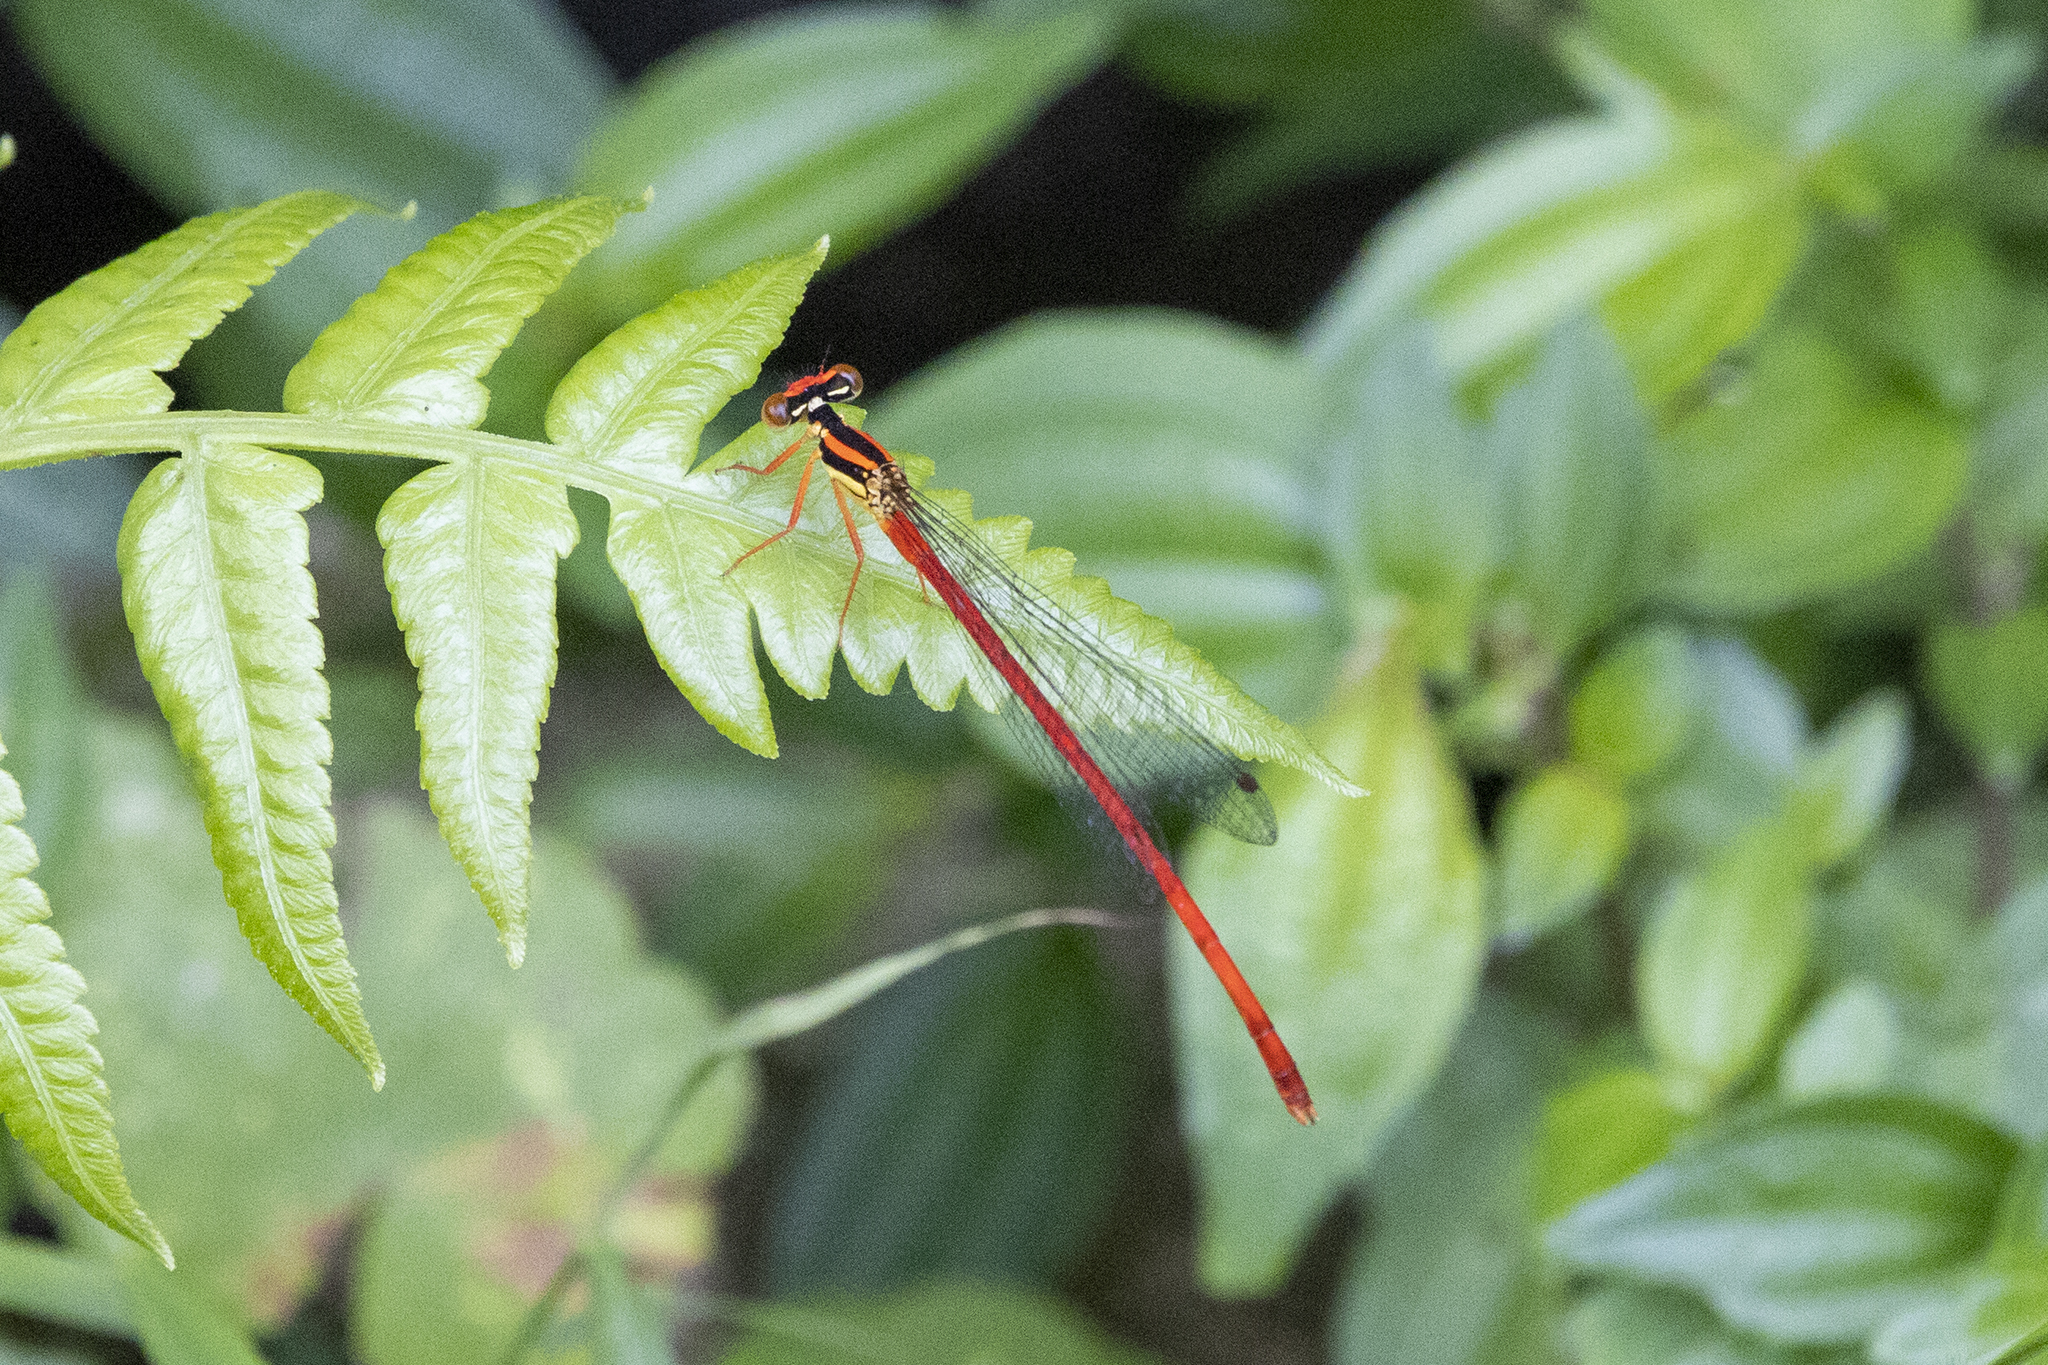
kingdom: Animalia
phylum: Arthropoda
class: Insecta
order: Odonata
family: Platycnemididae
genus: Calicnemia
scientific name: Calicnemia eximia
